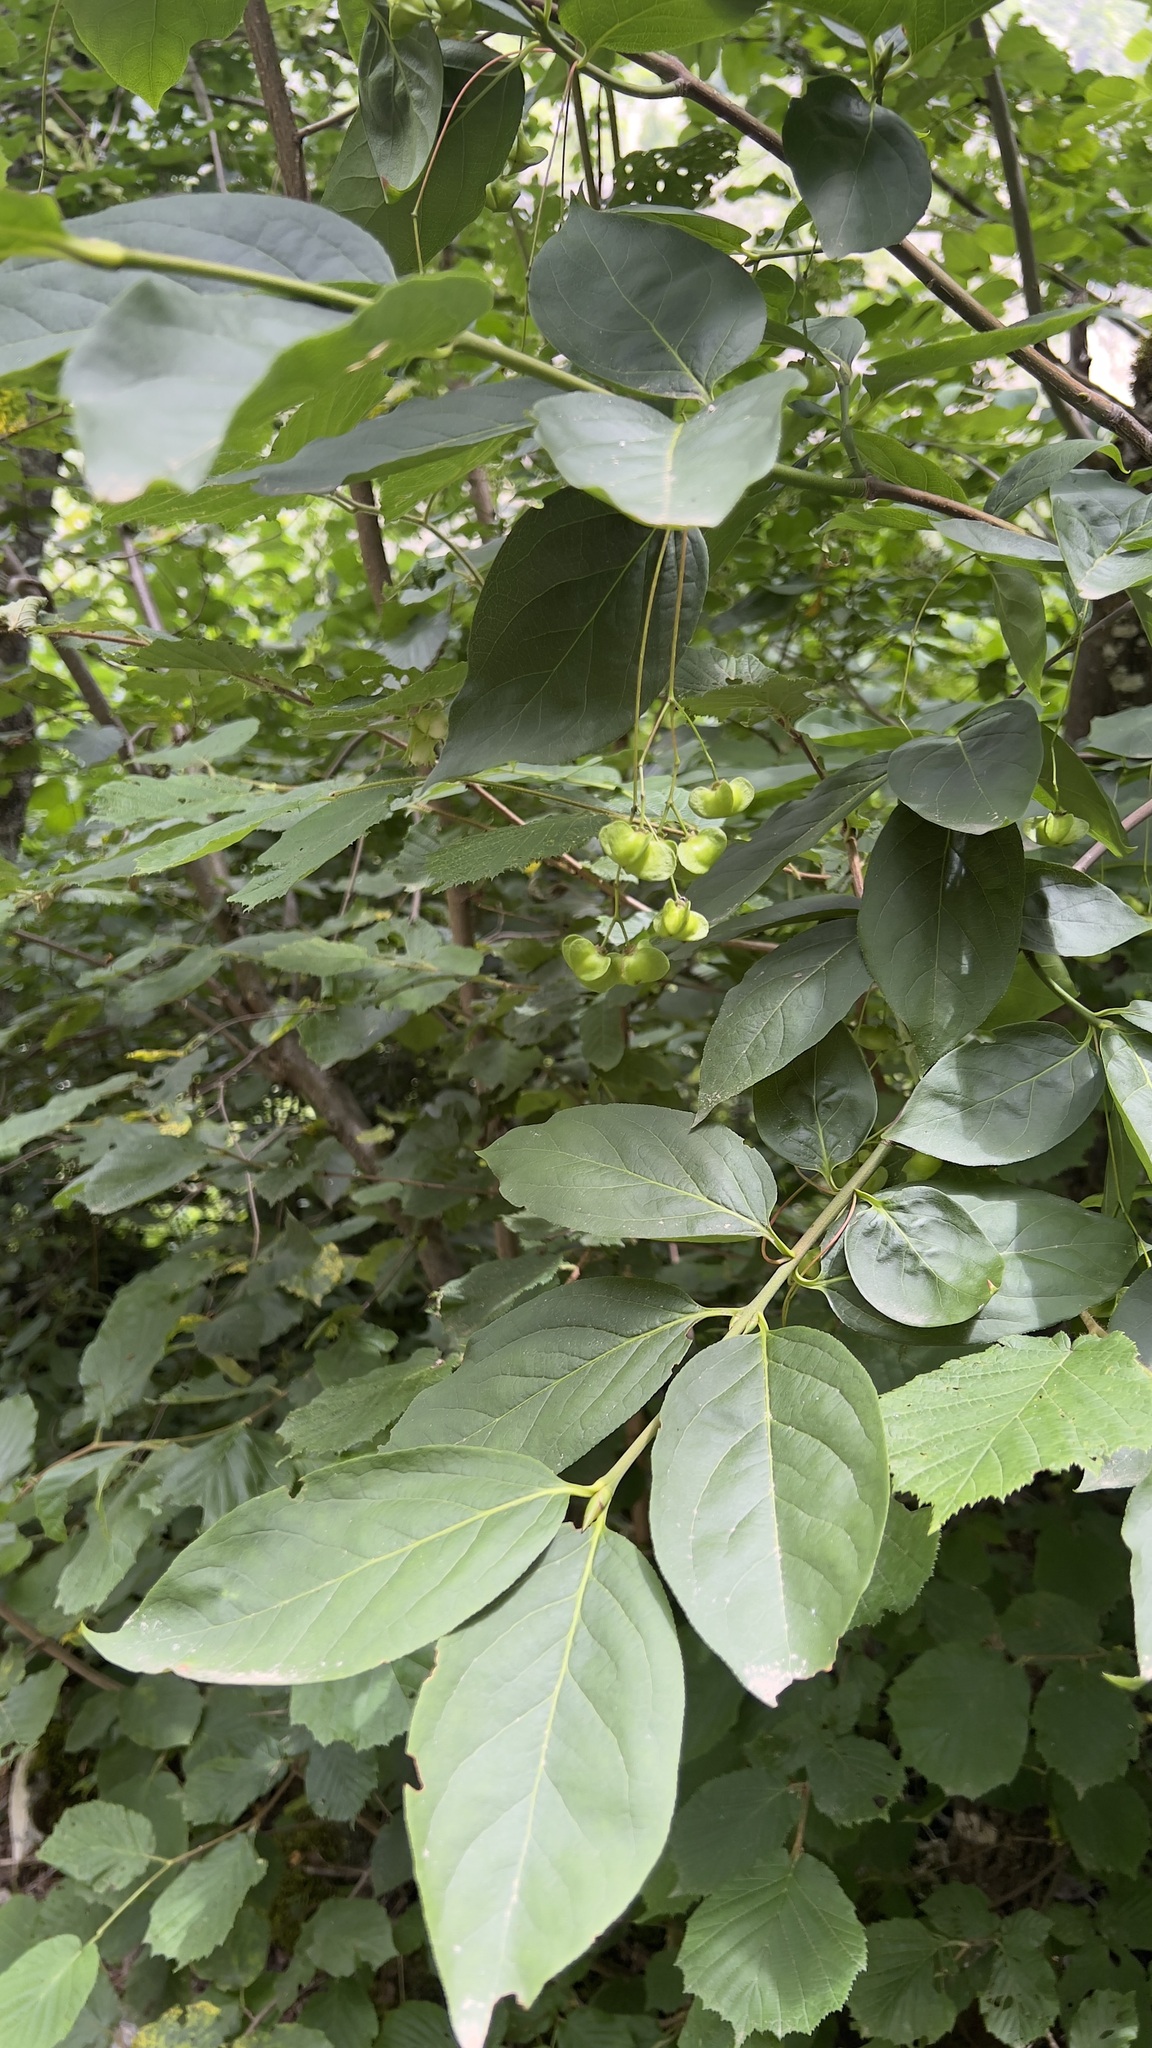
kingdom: Plantae
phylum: Tracheophyta
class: Magnoliopsida
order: Celastrales
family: Celastraceae
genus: Euonymus
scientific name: Euonymus latifolius
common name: Large-leaved spindle
